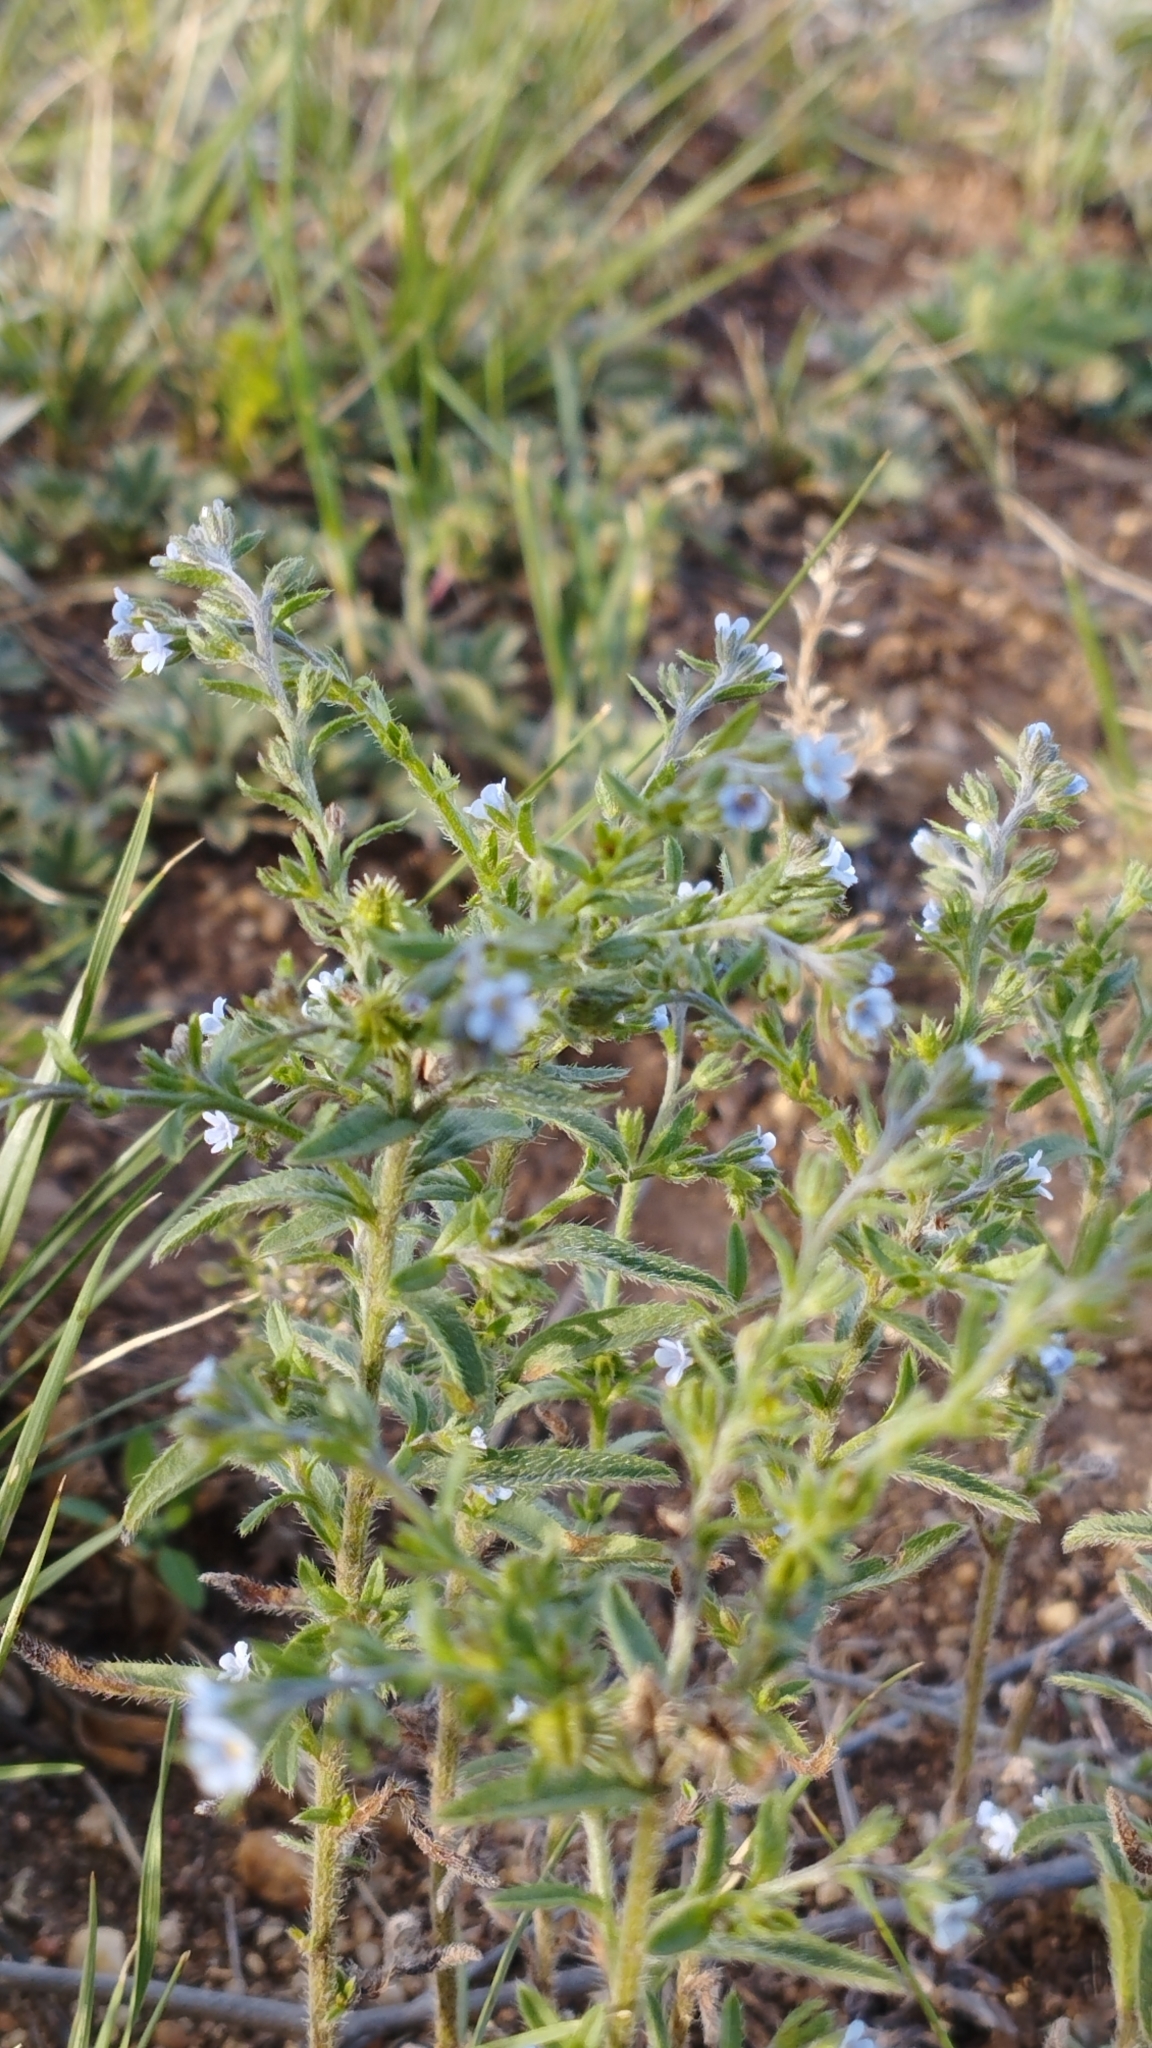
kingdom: Plantae
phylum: Tracheophyta
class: Magnoliopsida
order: Boraginales
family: Boraginaceae
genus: Lappula
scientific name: Lappula squarrosa
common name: European stickseed
